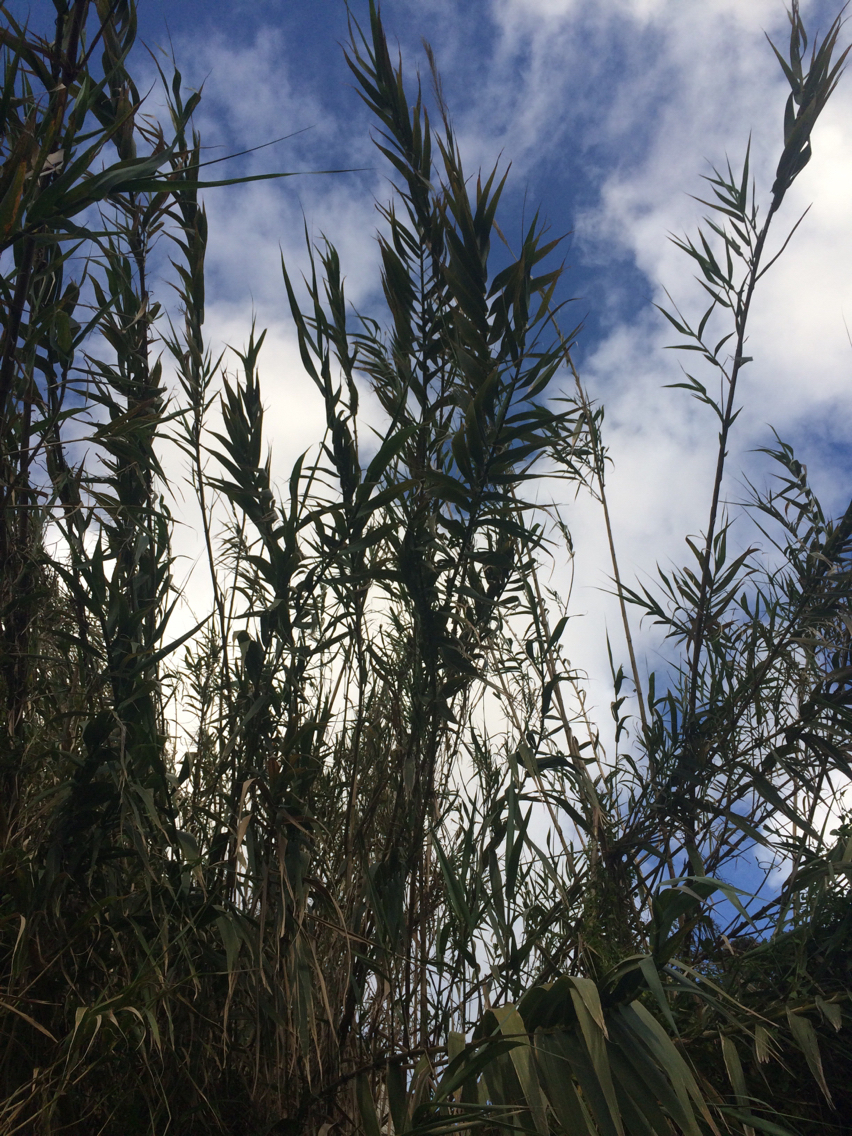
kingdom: Plantae
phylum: Tracheophyta
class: Liliopsida
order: Poales
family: Poaceae
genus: Arundo
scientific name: Arundo donax
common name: Giant reed
